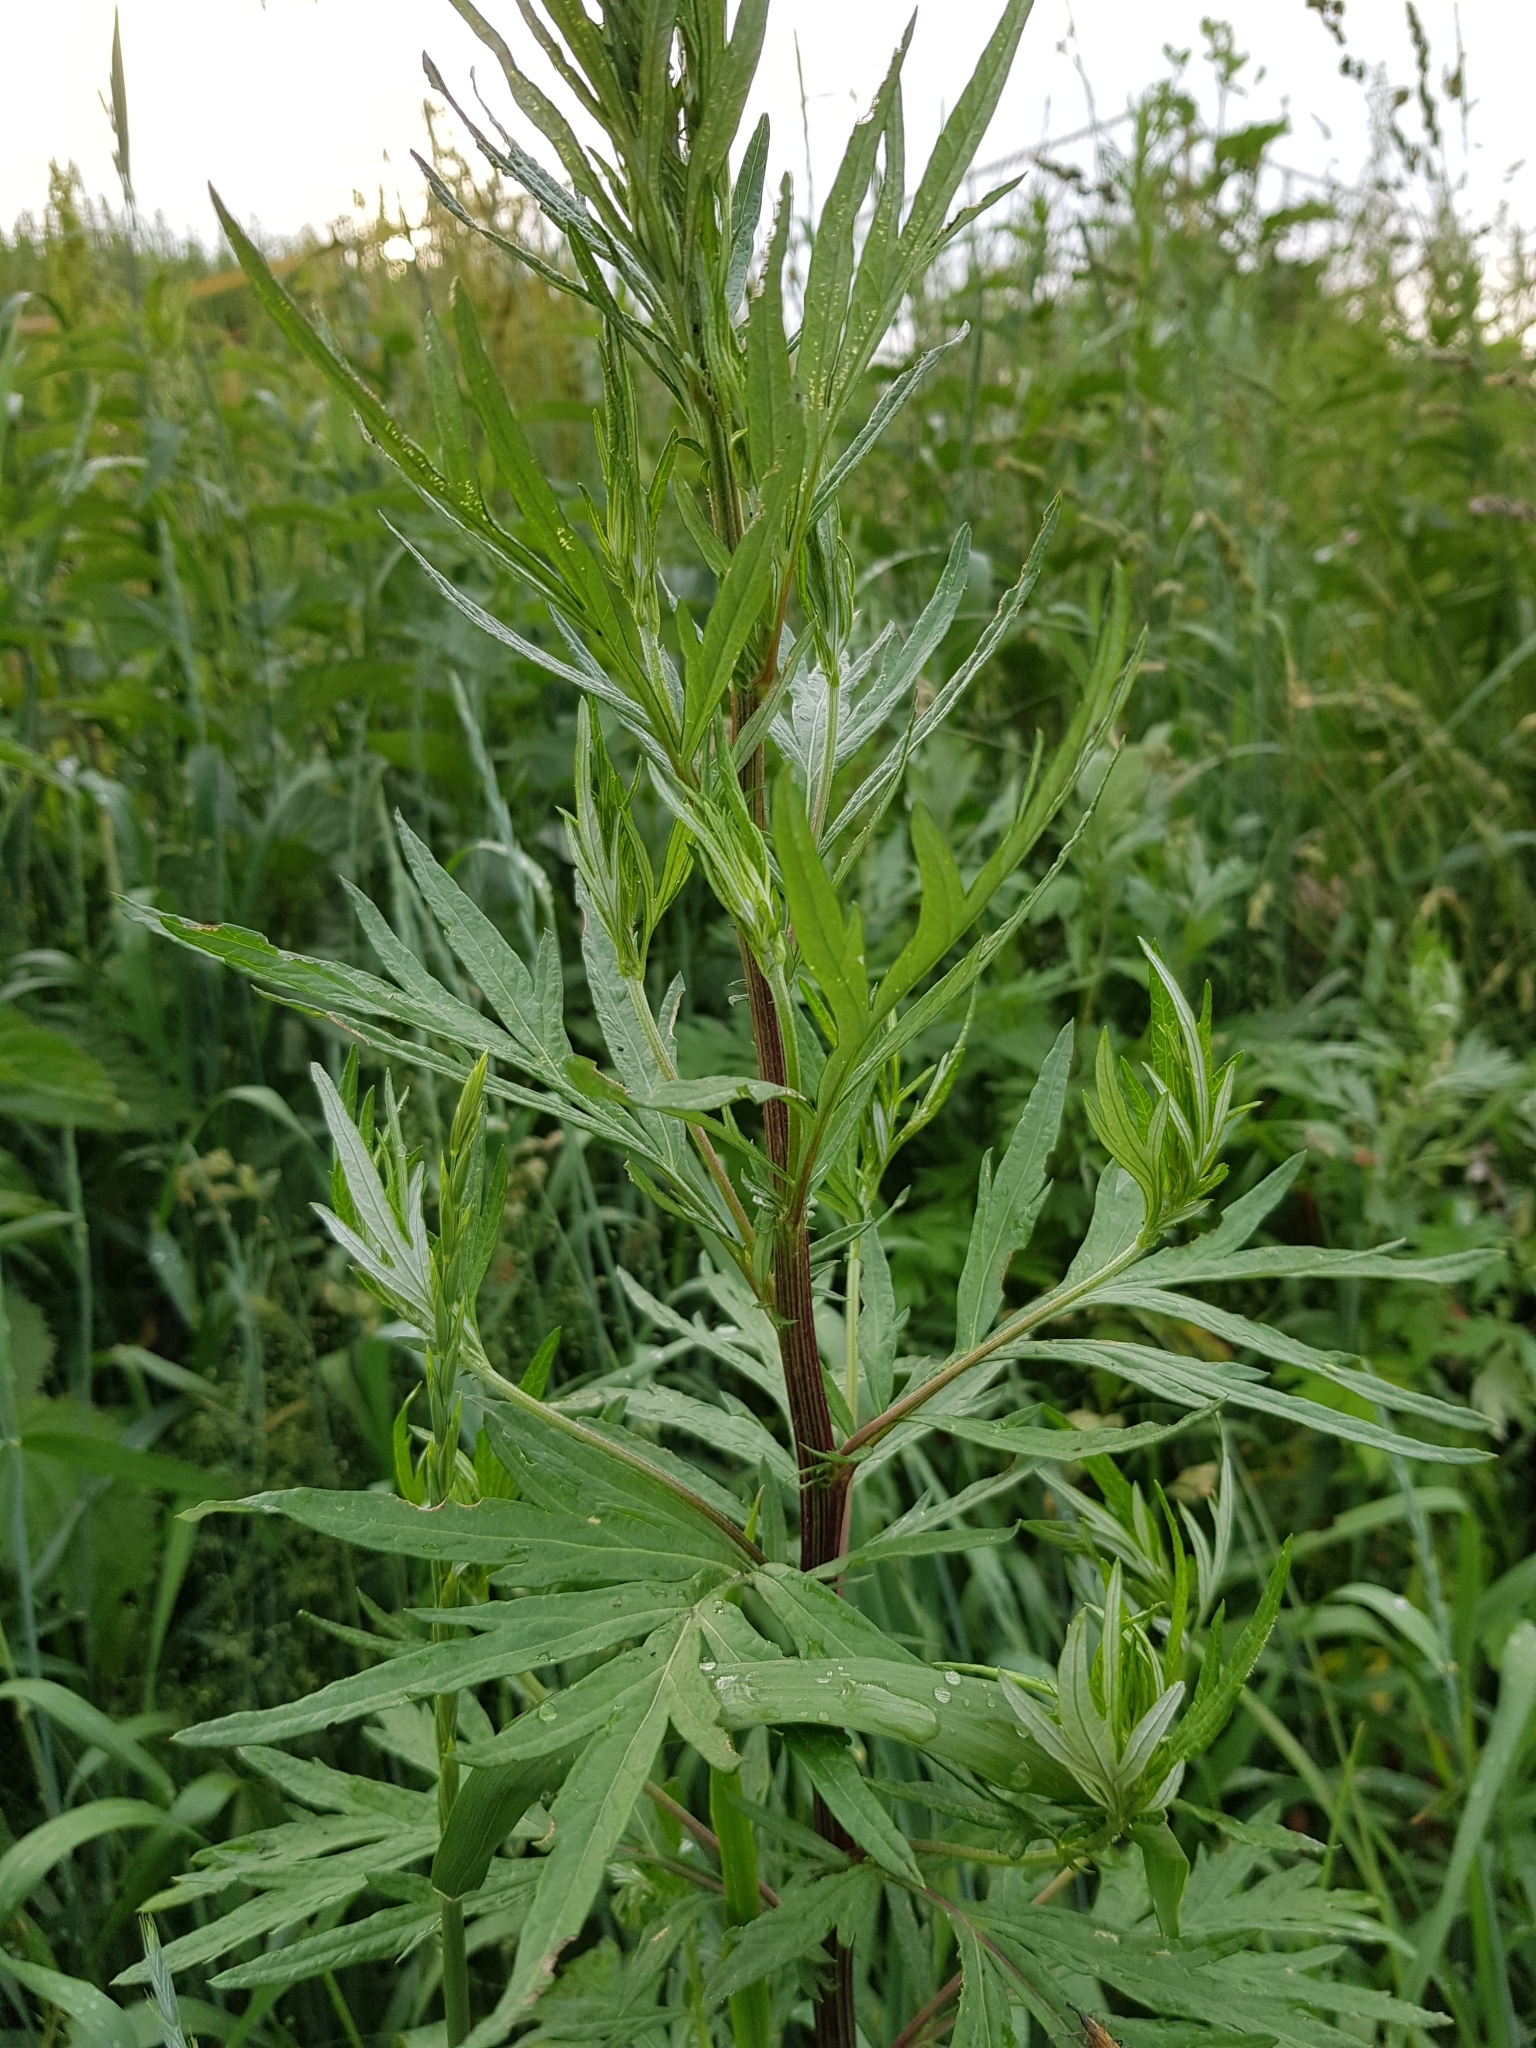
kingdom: Plantae
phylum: Tracheophyta
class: Magnoliopsida
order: Asterales
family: Asteraceae
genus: Artemisia
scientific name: Artemisia vulgaris
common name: Mugwort
